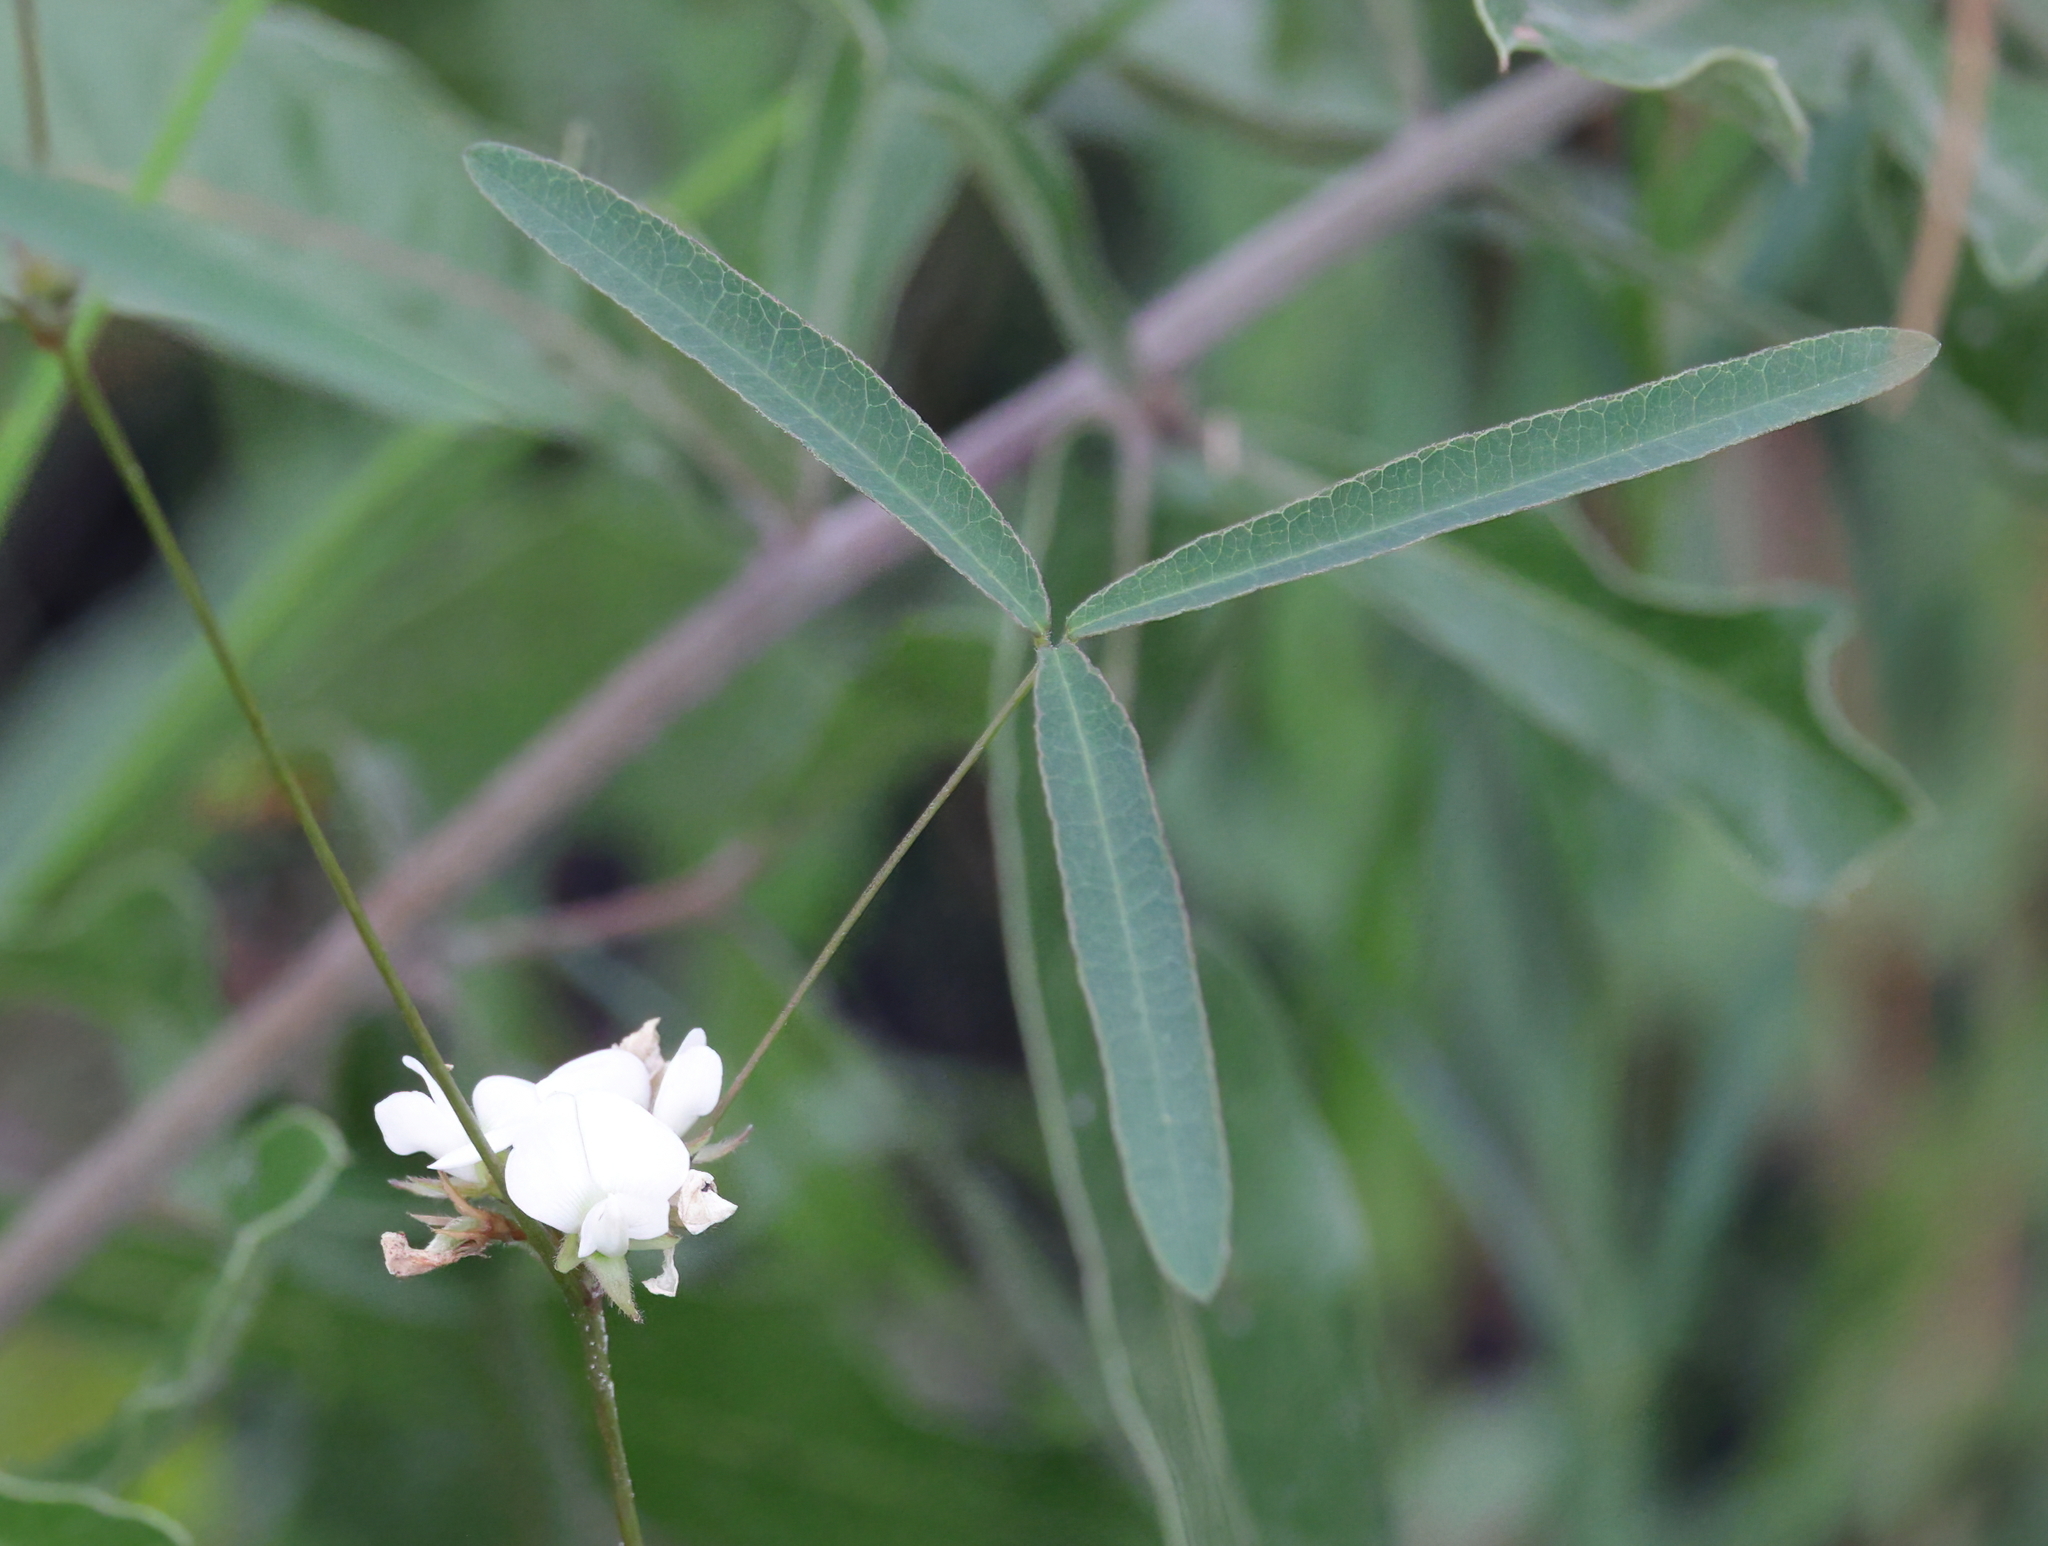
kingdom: Plantae
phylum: Tracheophyta
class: Magnoliopsida
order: Fabales
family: Fabaceae
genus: Strophostyles
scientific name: Strophostyles leiosperma
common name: Smooth-seed wild bean
